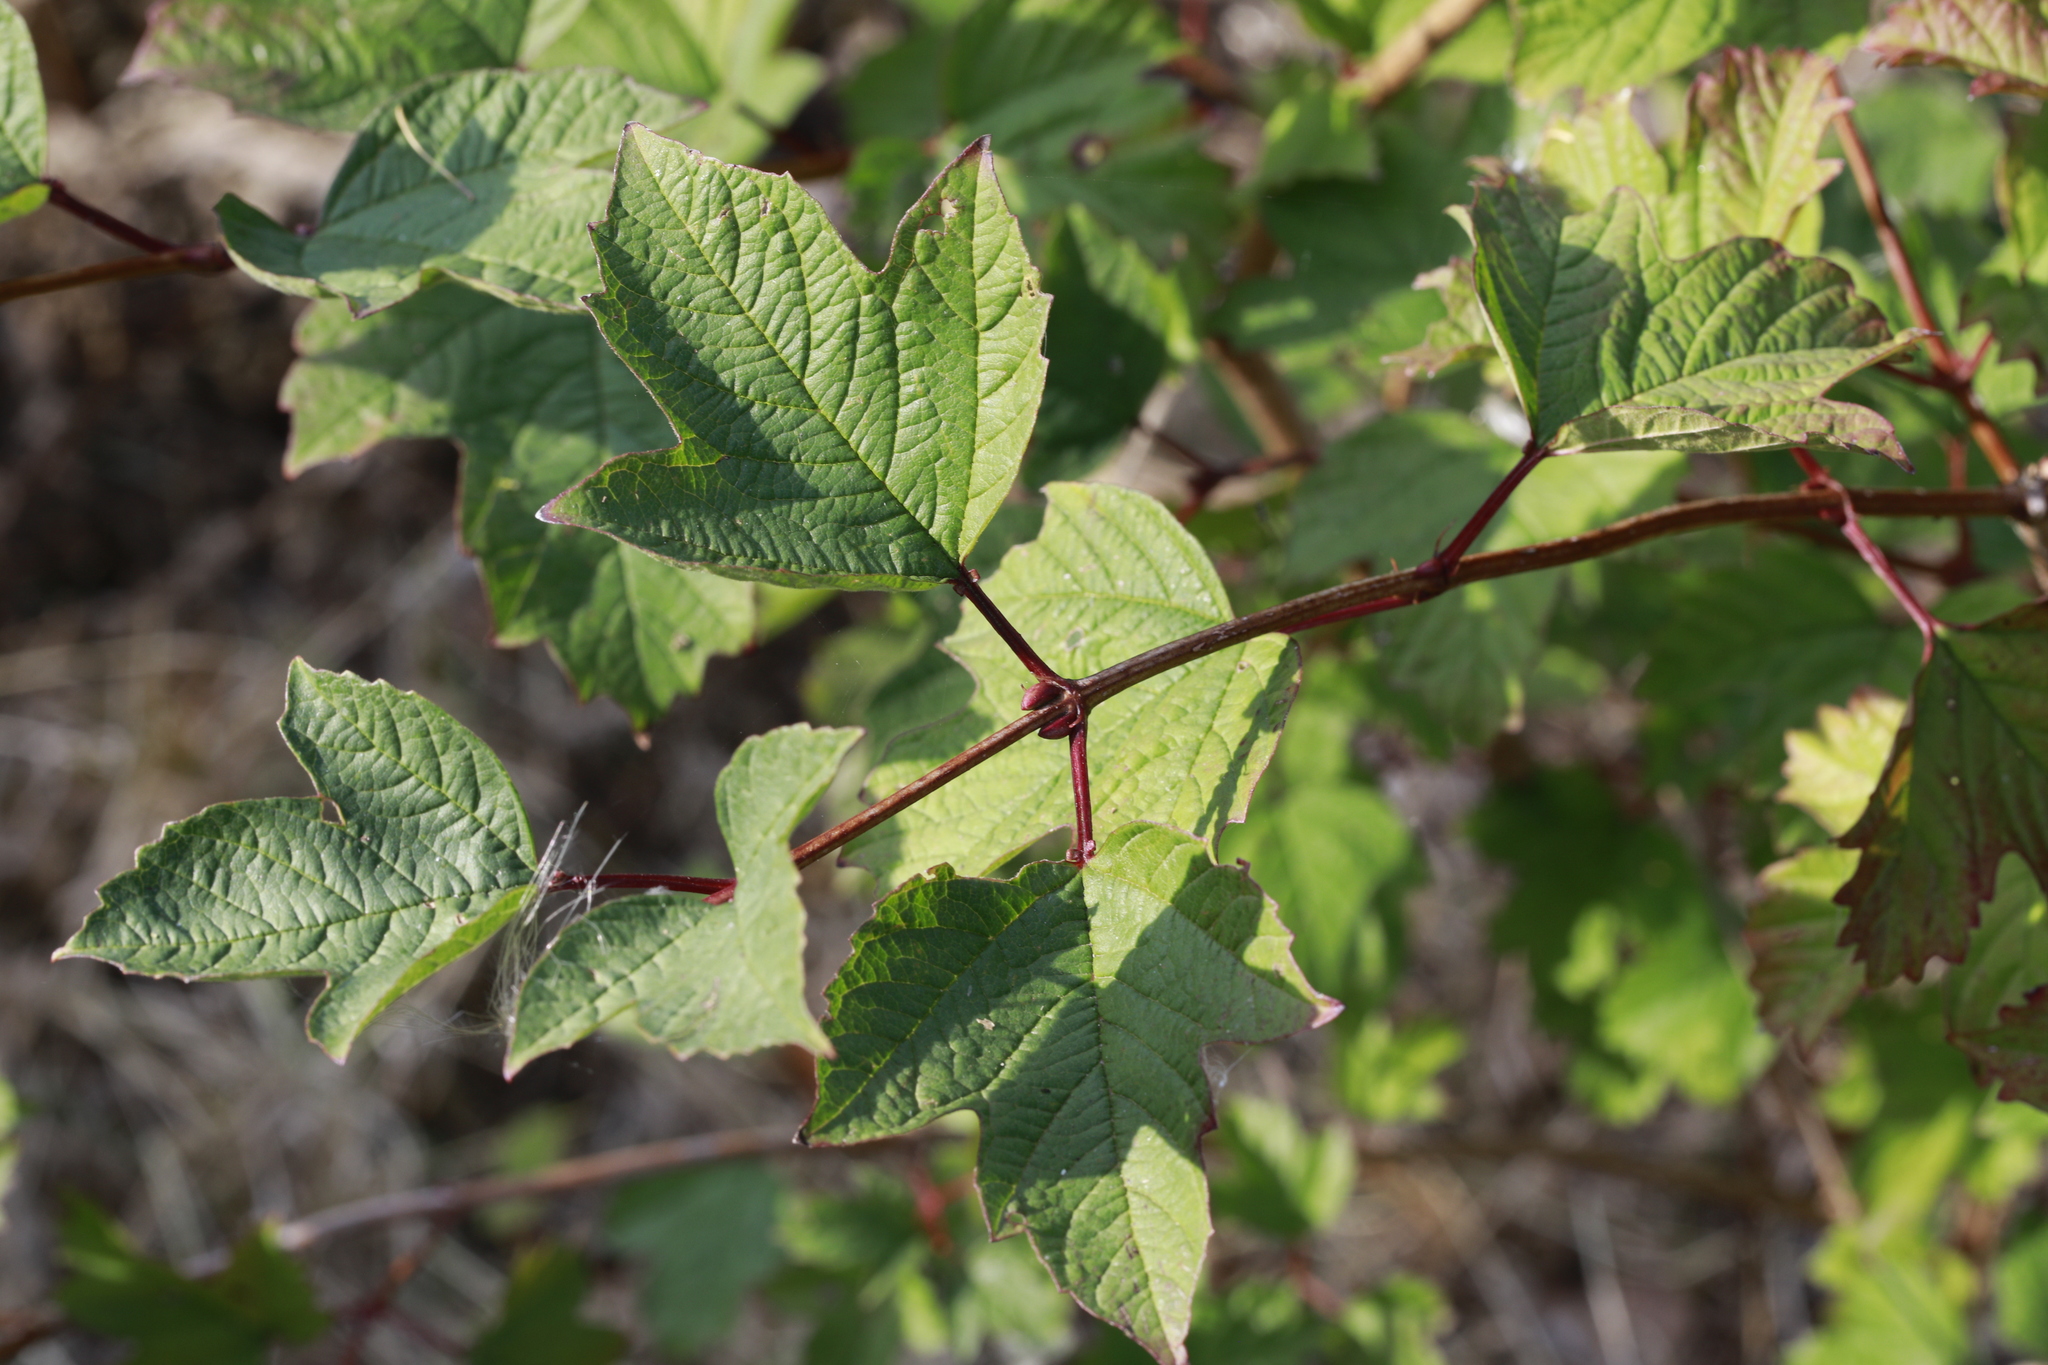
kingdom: Plantae
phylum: Tracheophyta
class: Magnoliopsida
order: Dipsacales
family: Viburnaceae
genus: Viburnum
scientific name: Viburnum opulus
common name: Guelder-rose
